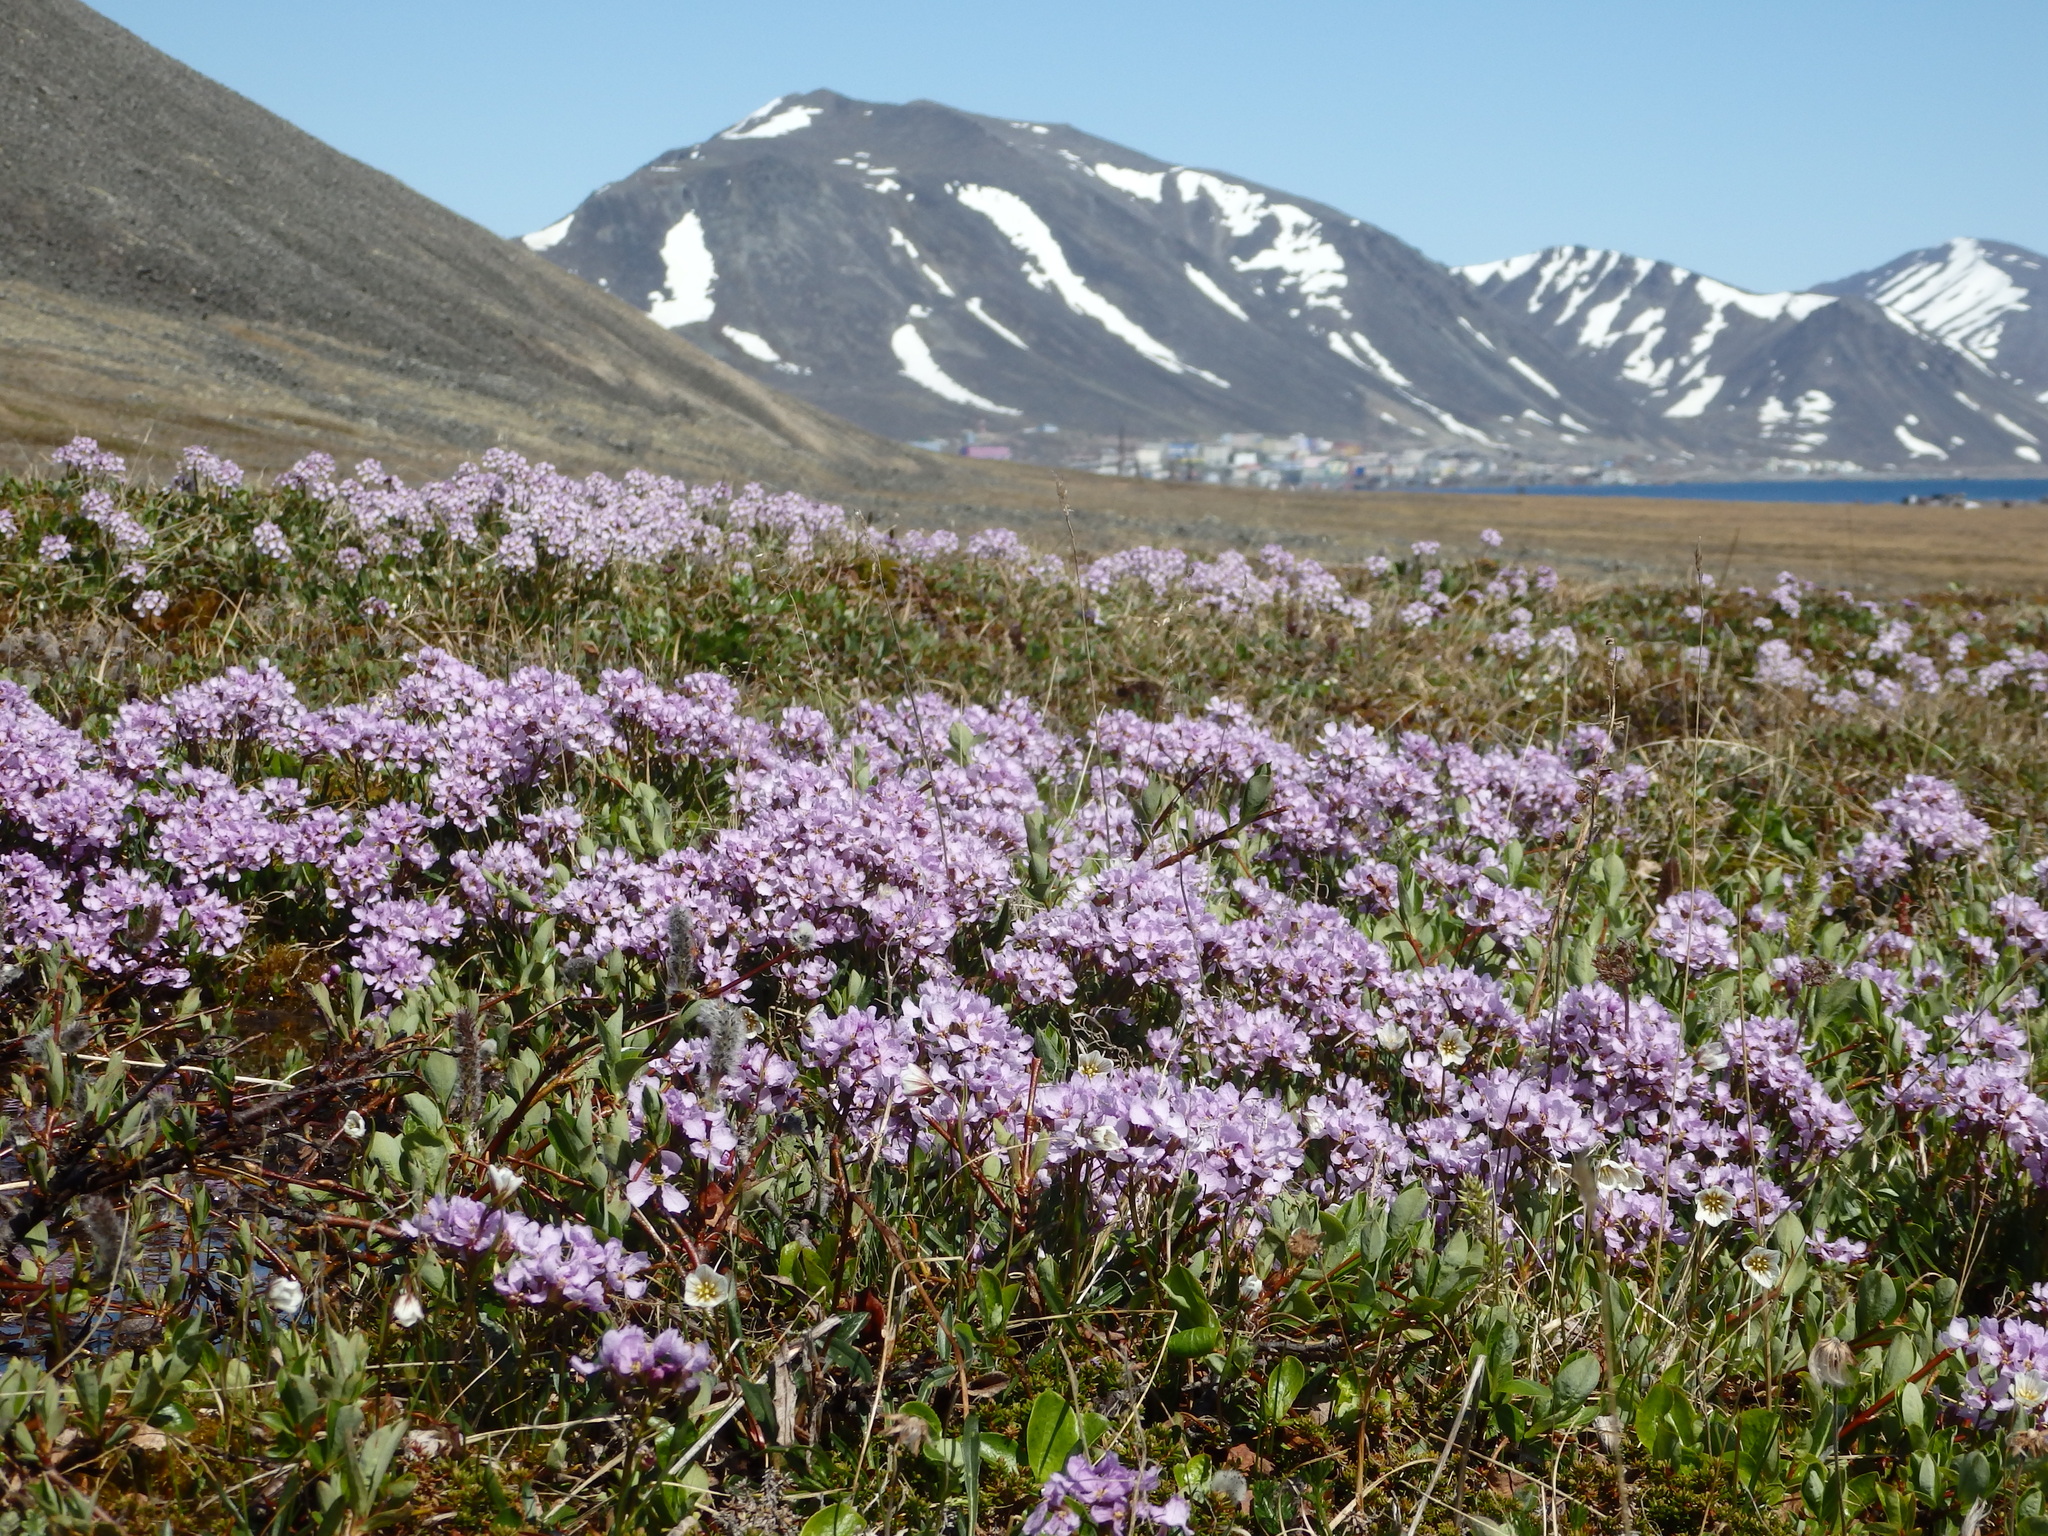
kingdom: Plantae
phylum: Tracheophyta
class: Magnoliopsida
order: Brassicales
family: Brassicaceae
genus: Parrya
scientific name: Parrya nudicaulis
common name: Naked-stemmed false wallflower
